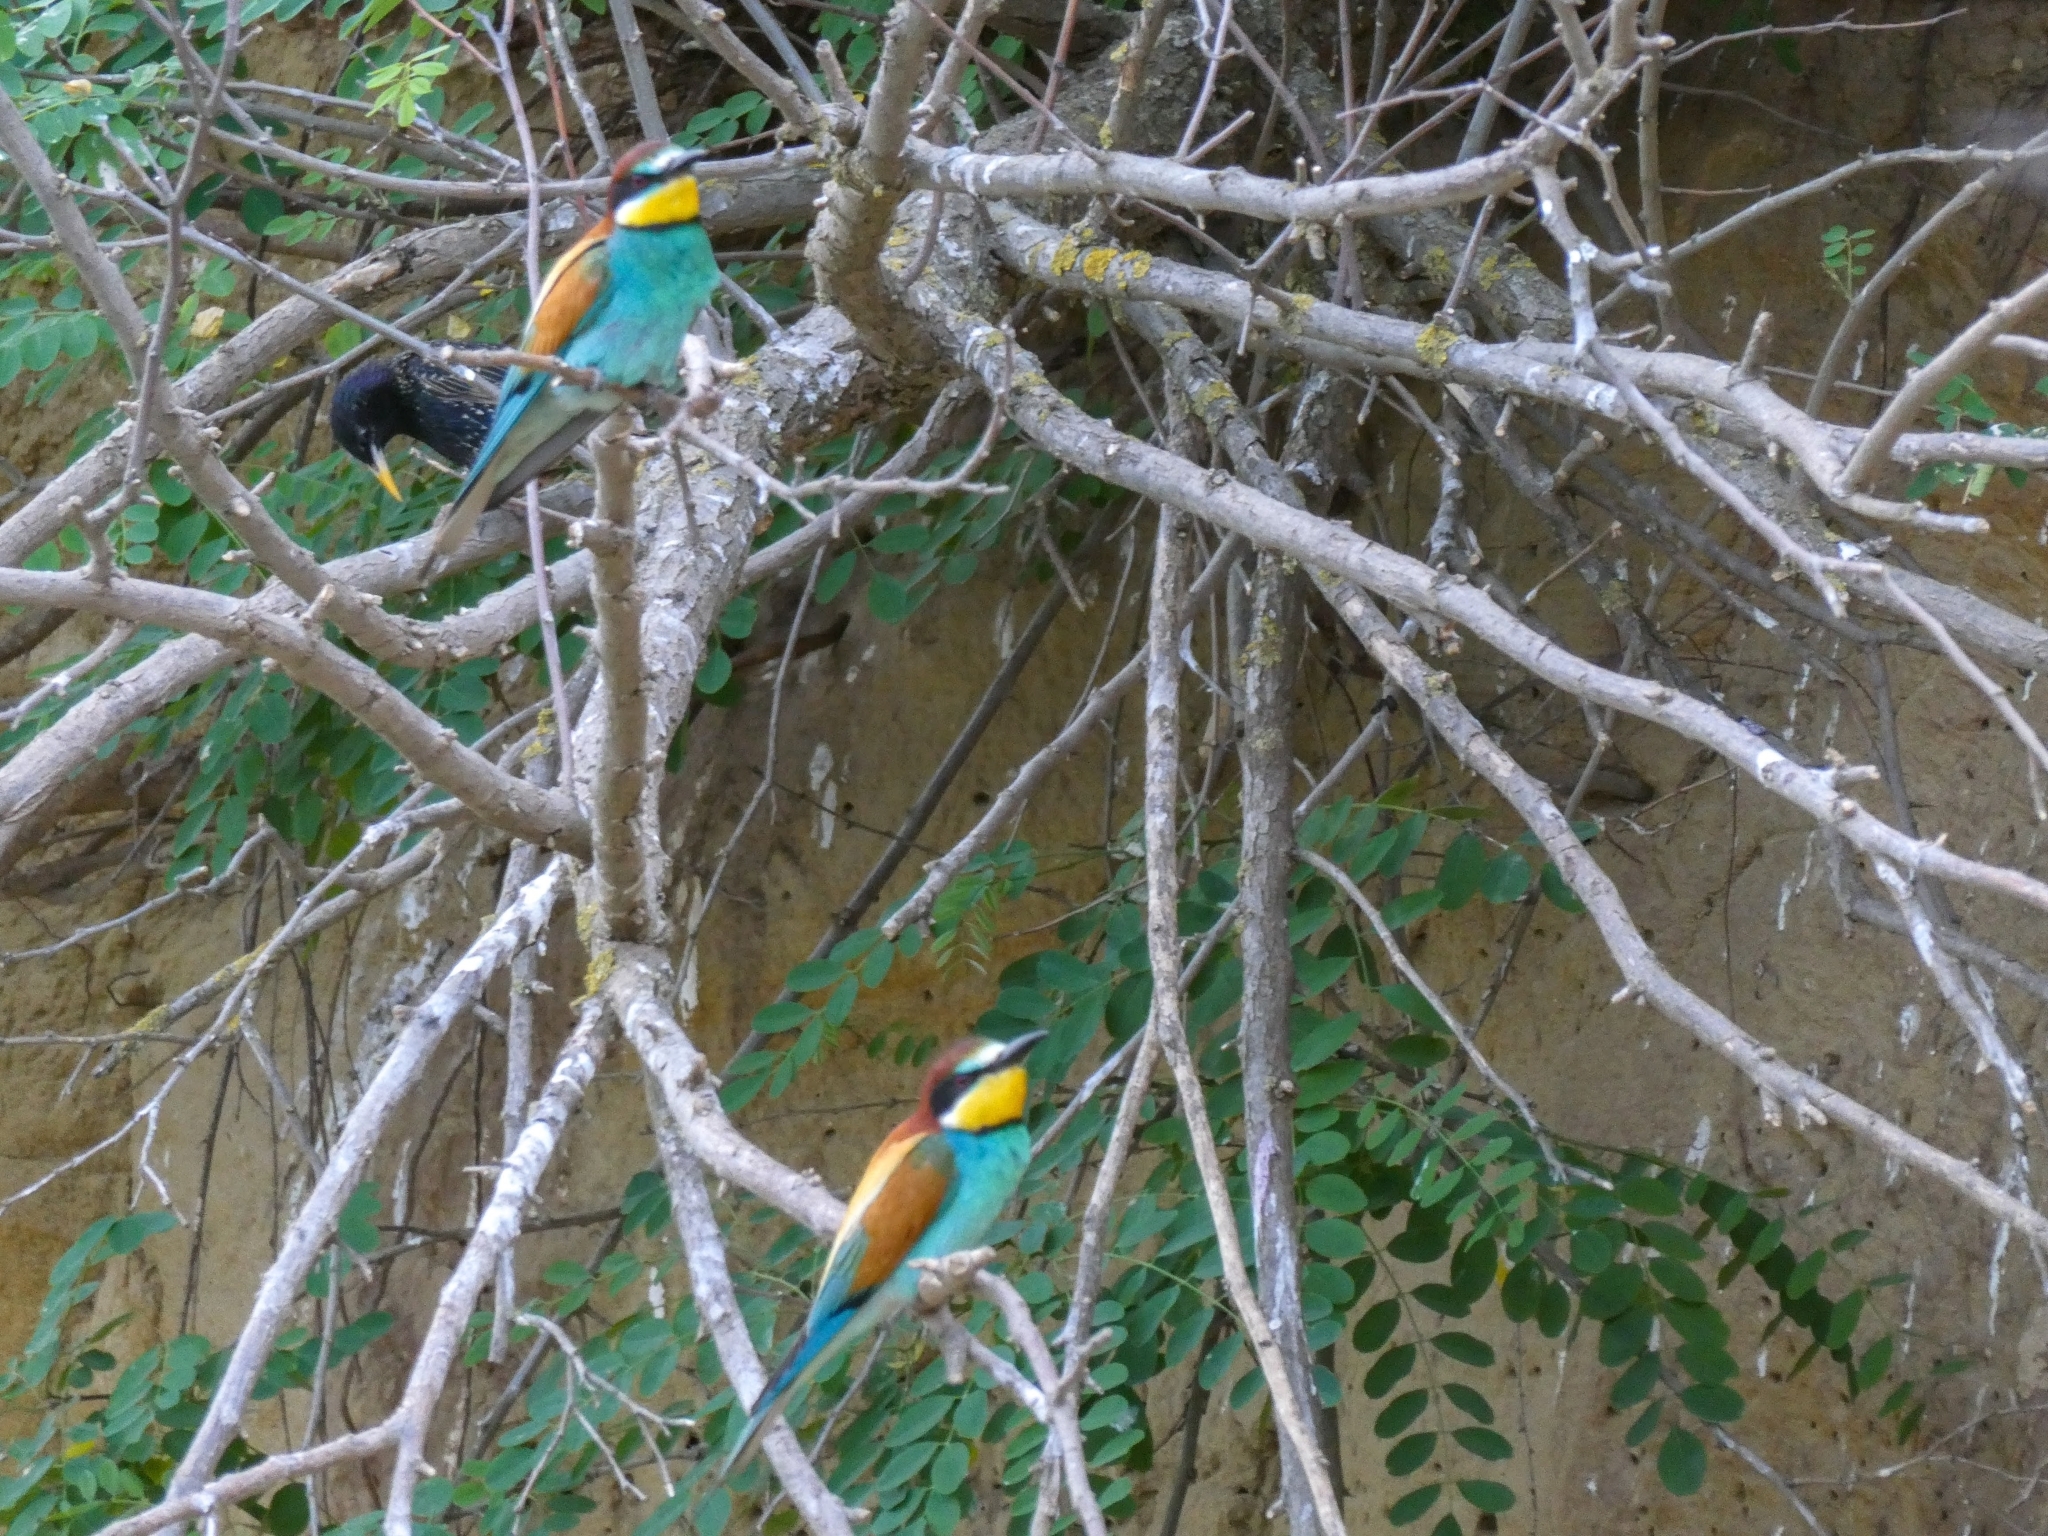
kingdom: Animalia
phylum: Chordata
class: Aves
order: Coraciiformes
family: Meropidae
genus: Merops
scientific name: Merops apiaster
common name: European bee-eater
